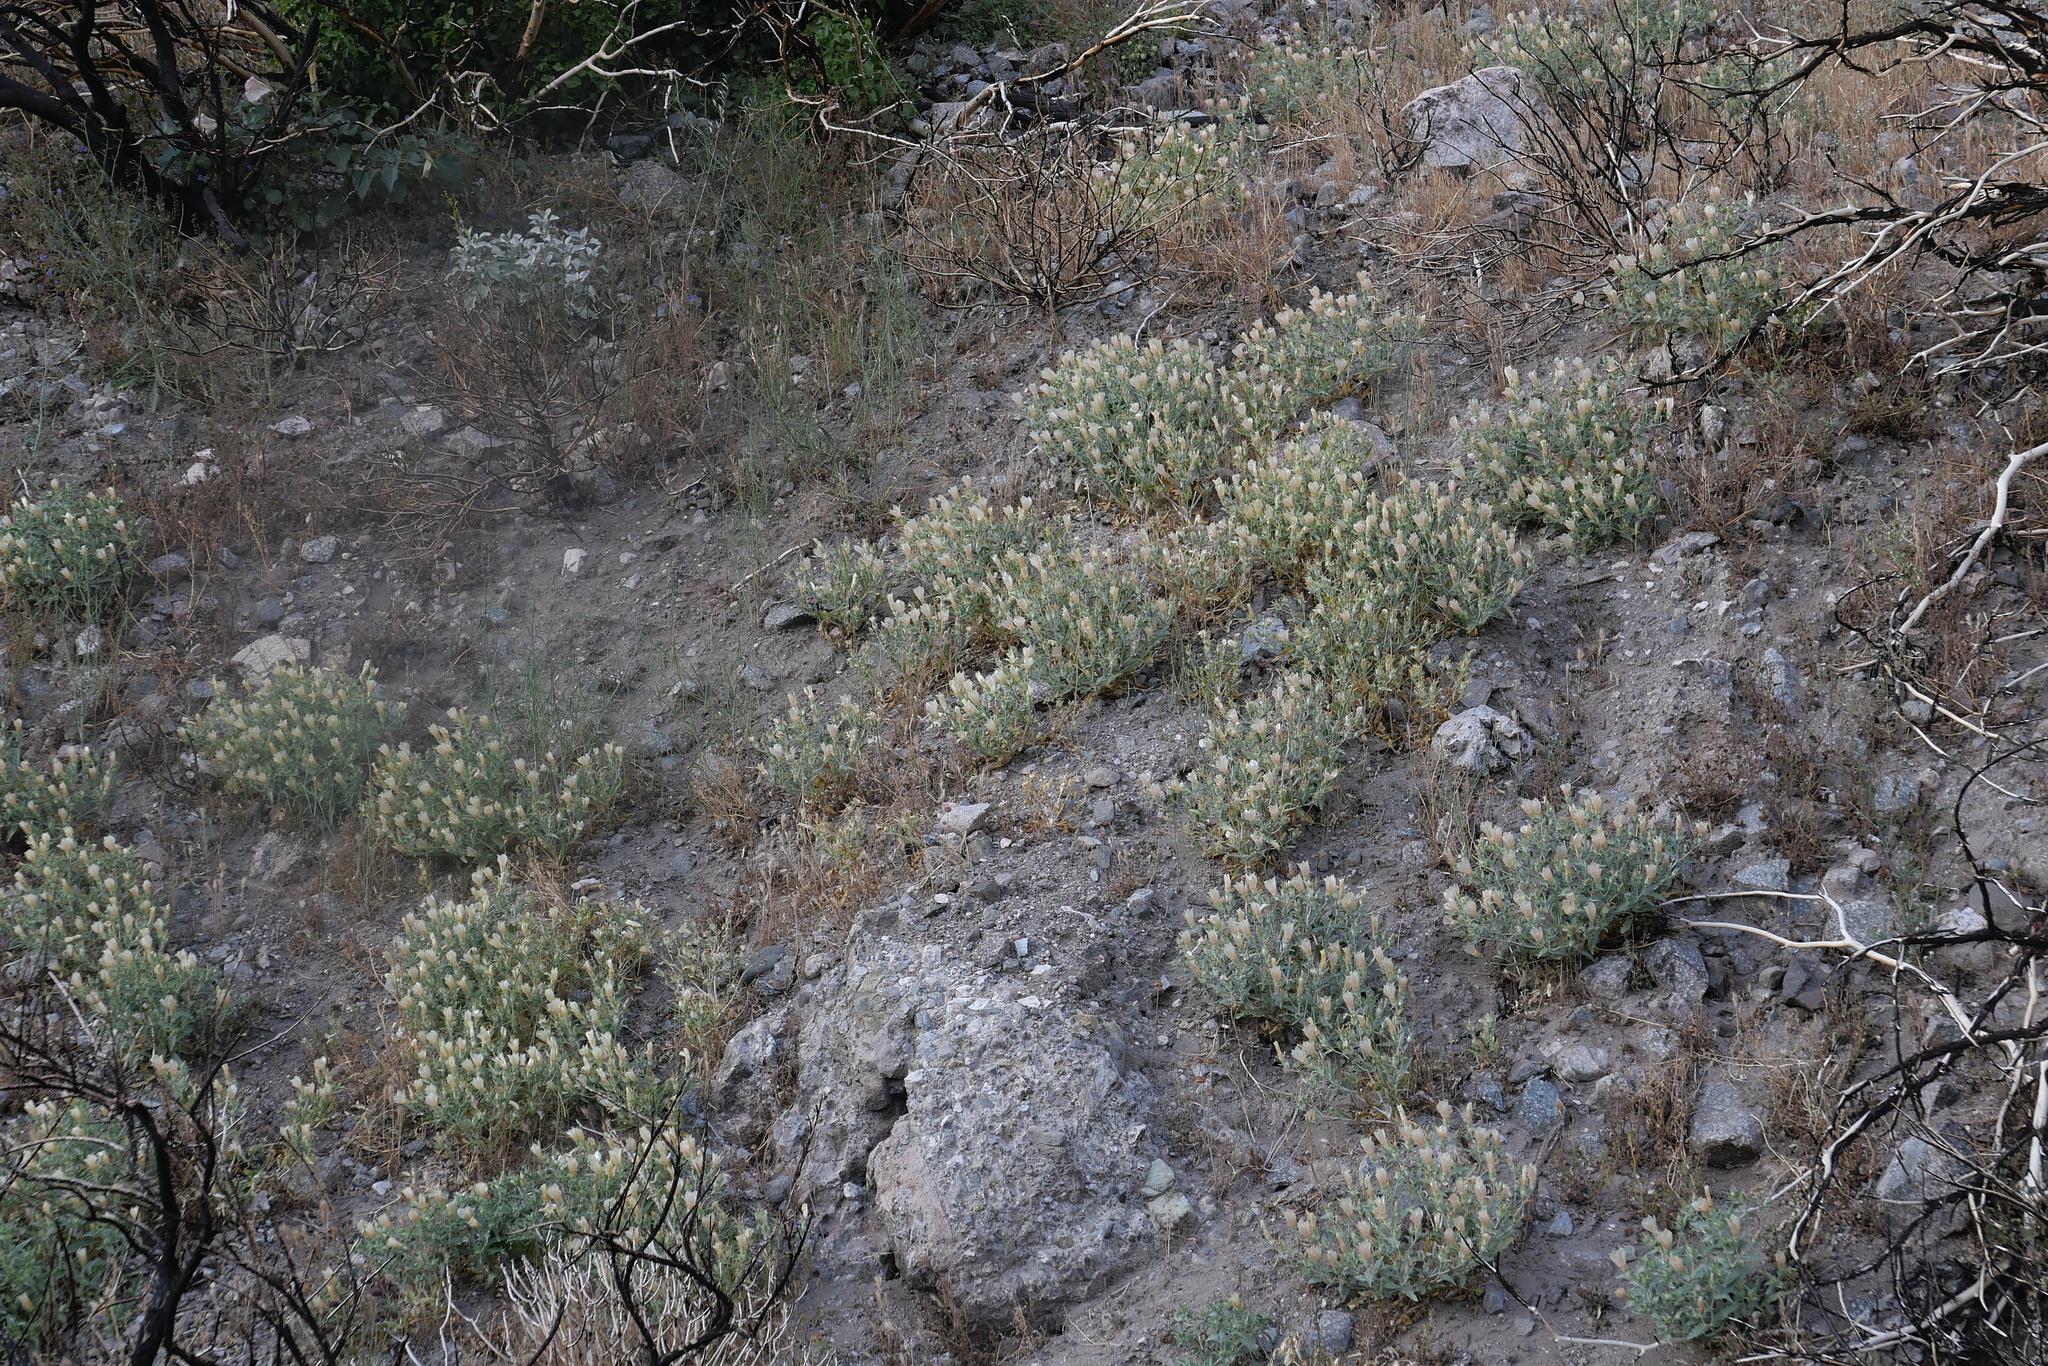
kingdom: Plantae
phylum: Tracheophyta
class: Magnoliopsida
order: Cornales
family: Loasaceae
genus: Mentzelia
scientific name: Mentzelia involucrata
